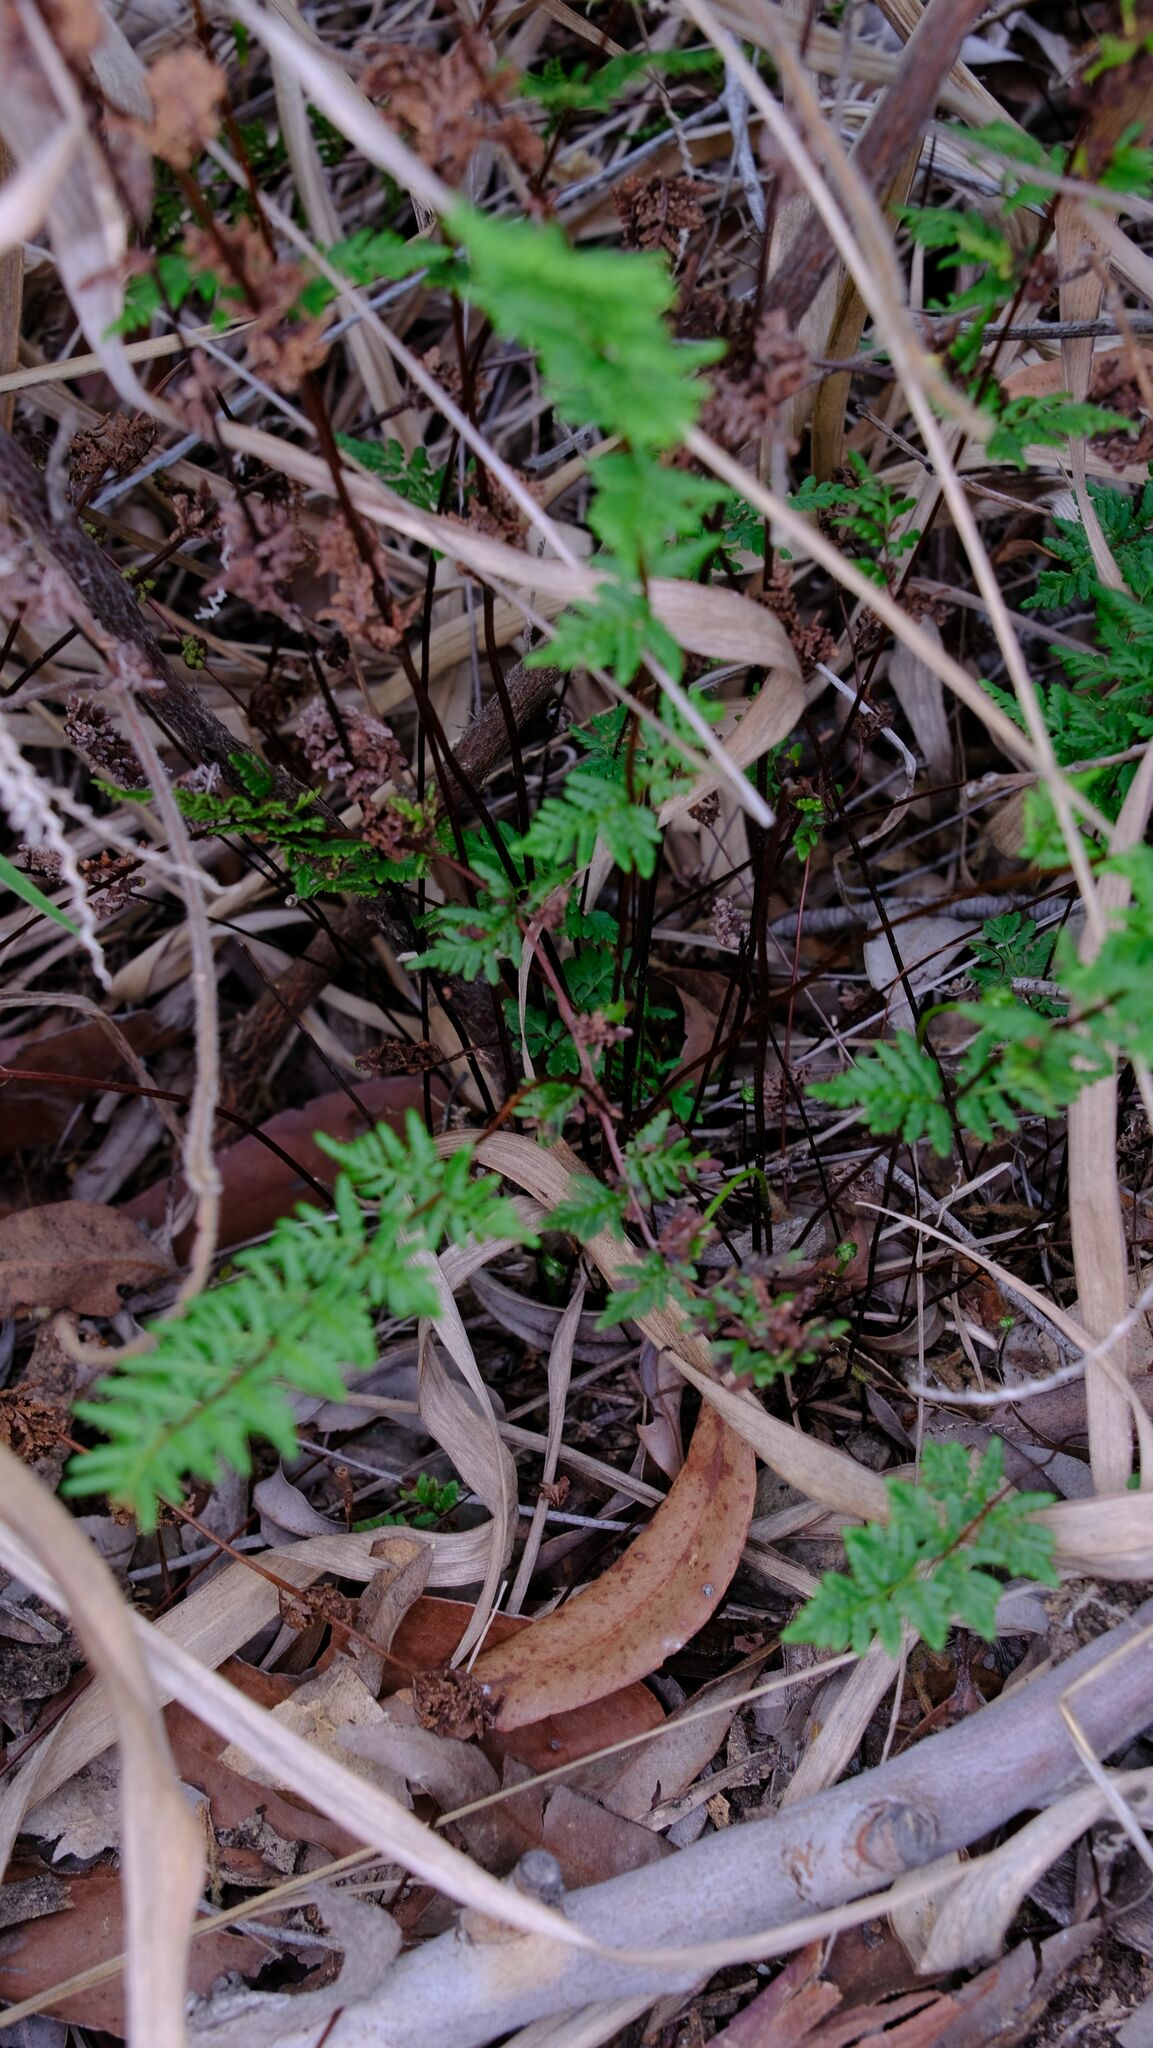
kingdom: Plantae
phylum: Tracheophyta
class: Polypodiopsida
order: Polypodiales
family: Pteridaceae
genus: Cheilanthes
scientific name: Cheilanthes sieberi
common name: Mulga fern
